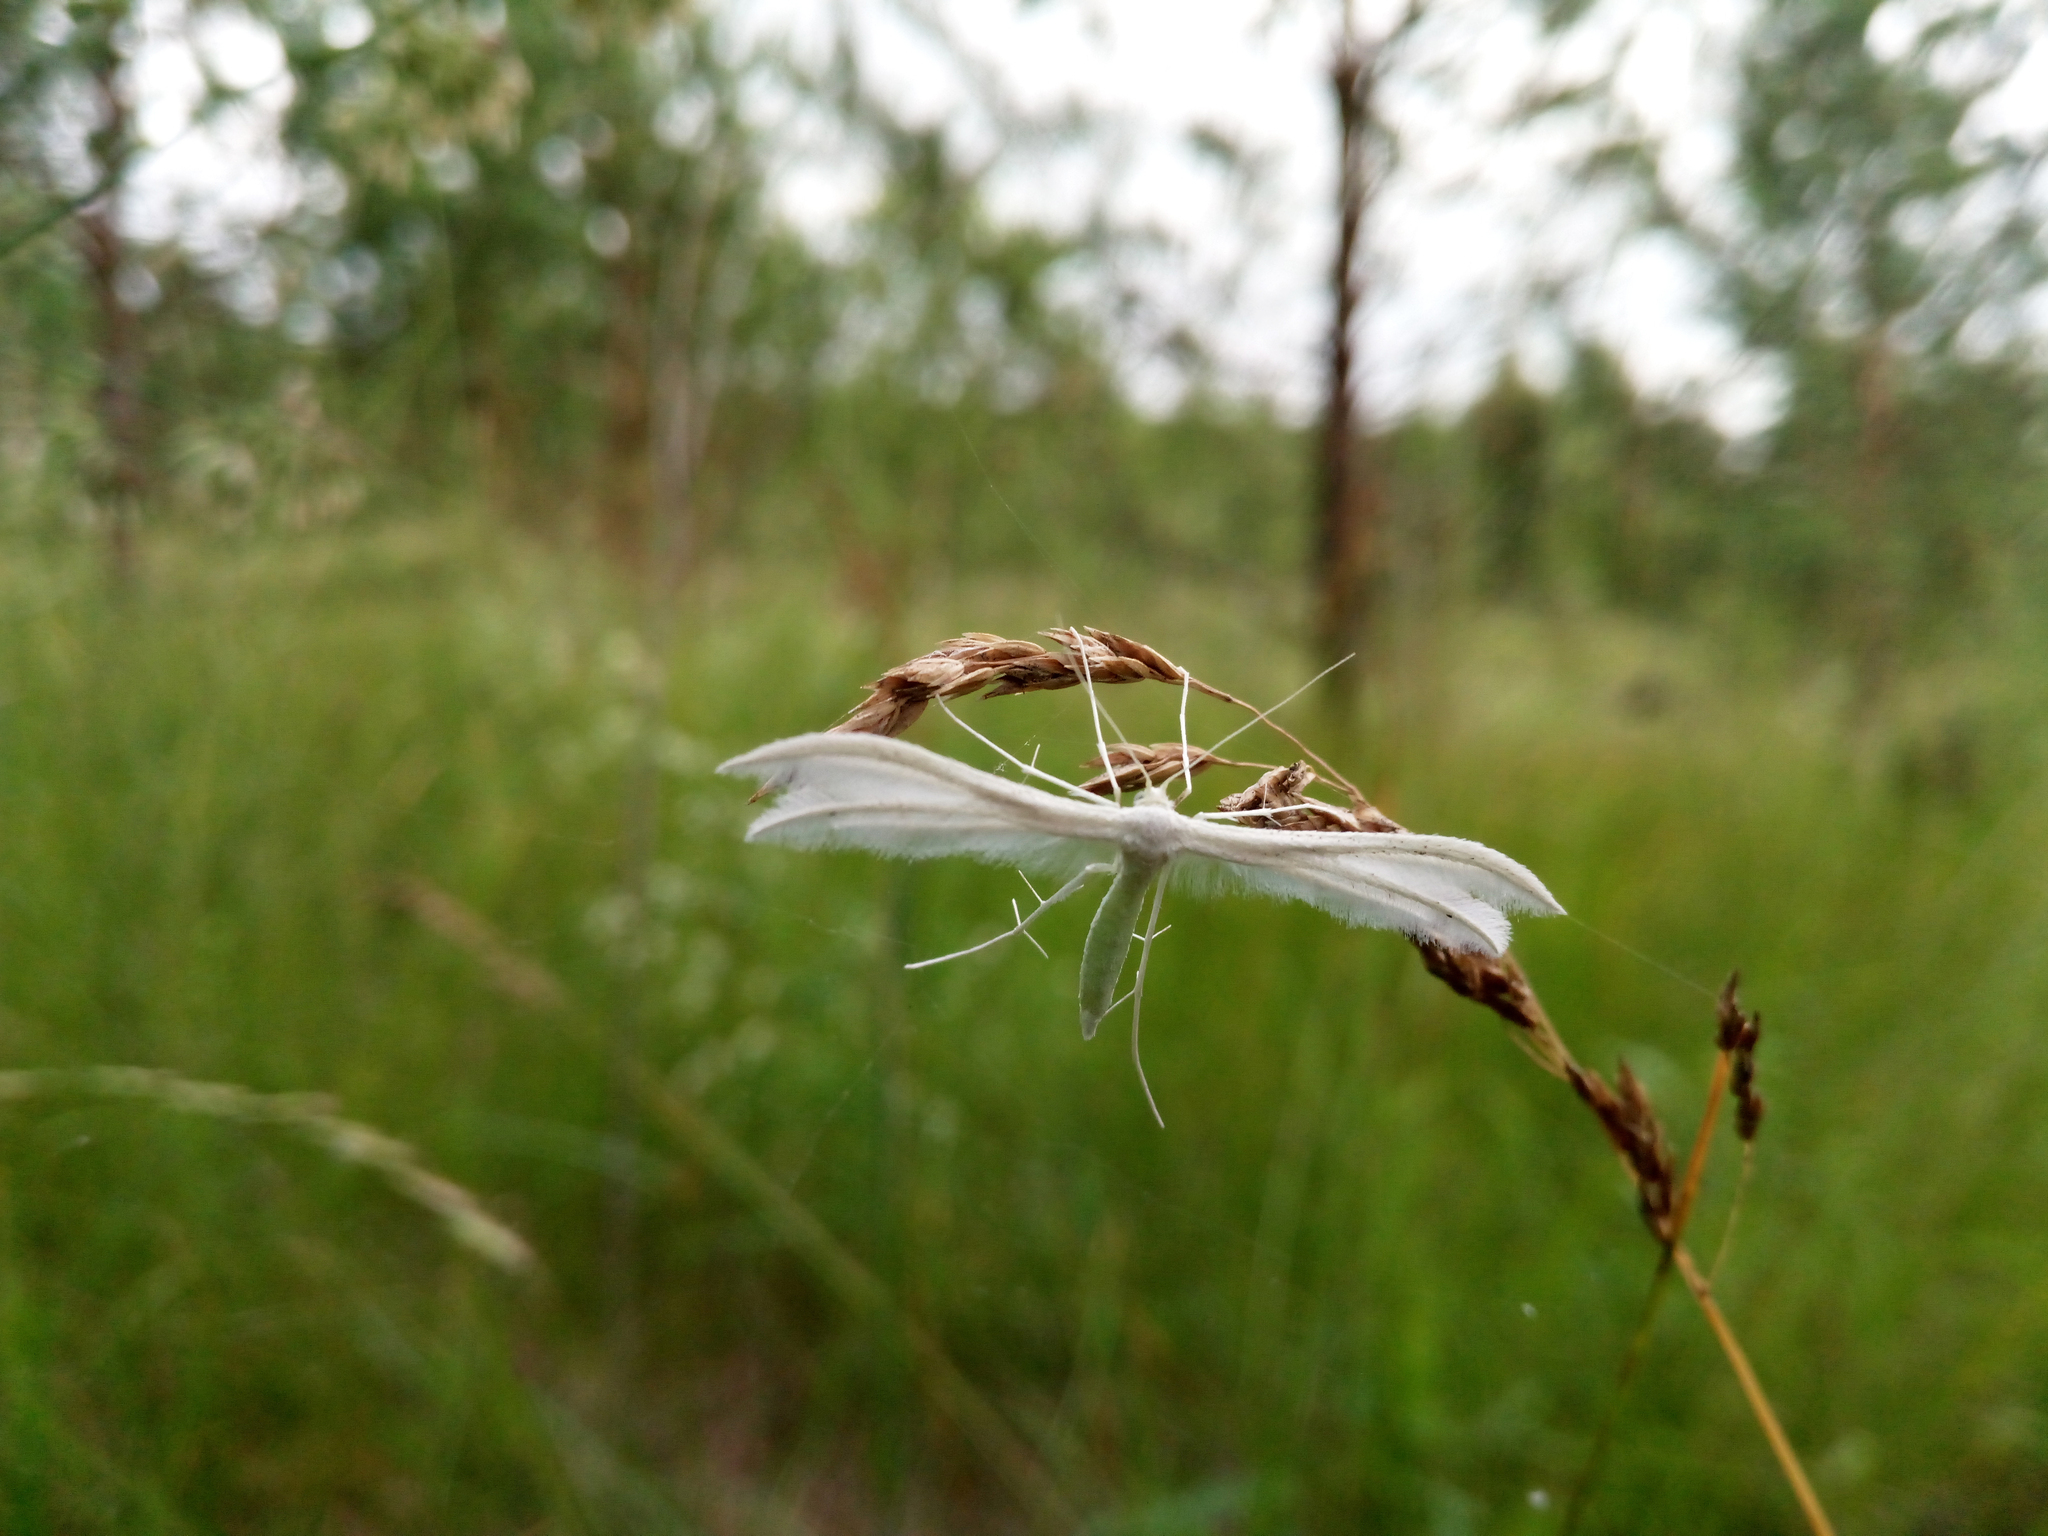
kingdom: Animalia
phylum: Arthropoda
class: Insecta
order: Lepidoptera
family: Pterophoridae
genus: Pterophorus
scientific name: Pterophorus pentadactyla
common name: White plume moth
